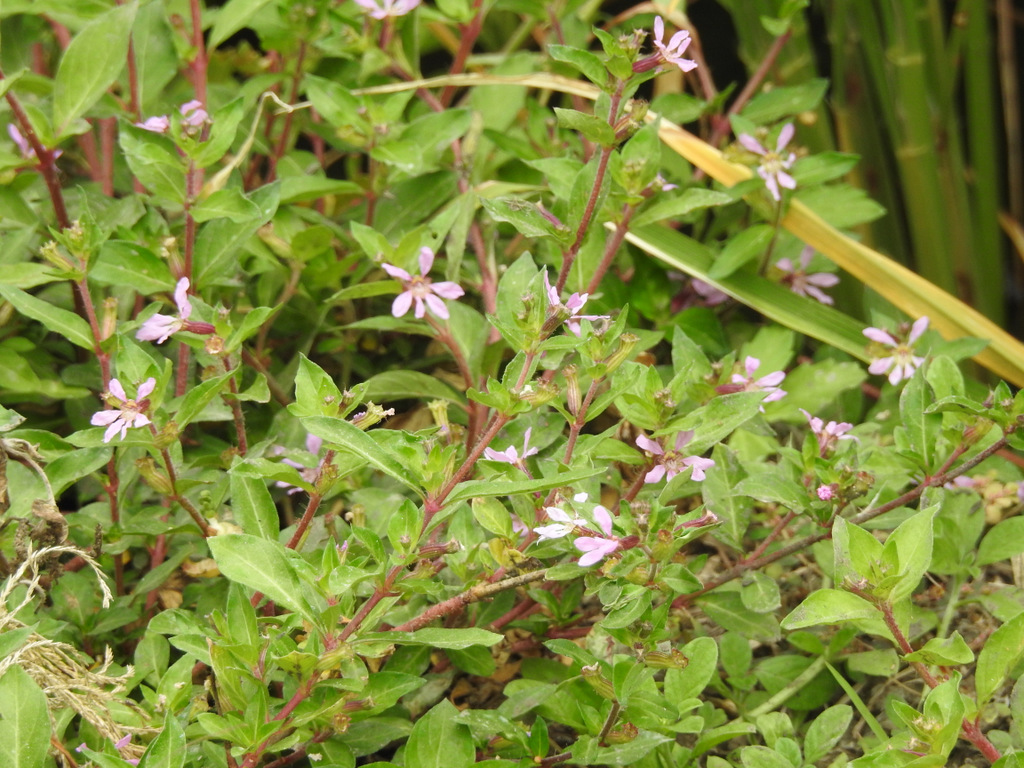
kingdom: Plantae
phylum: Tracheophyta
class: Magnoliopsida
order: Myrtales
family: Lythraceae
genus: Cuphea
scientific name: Cuphea carthagenensis
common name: Colombian waxweed
